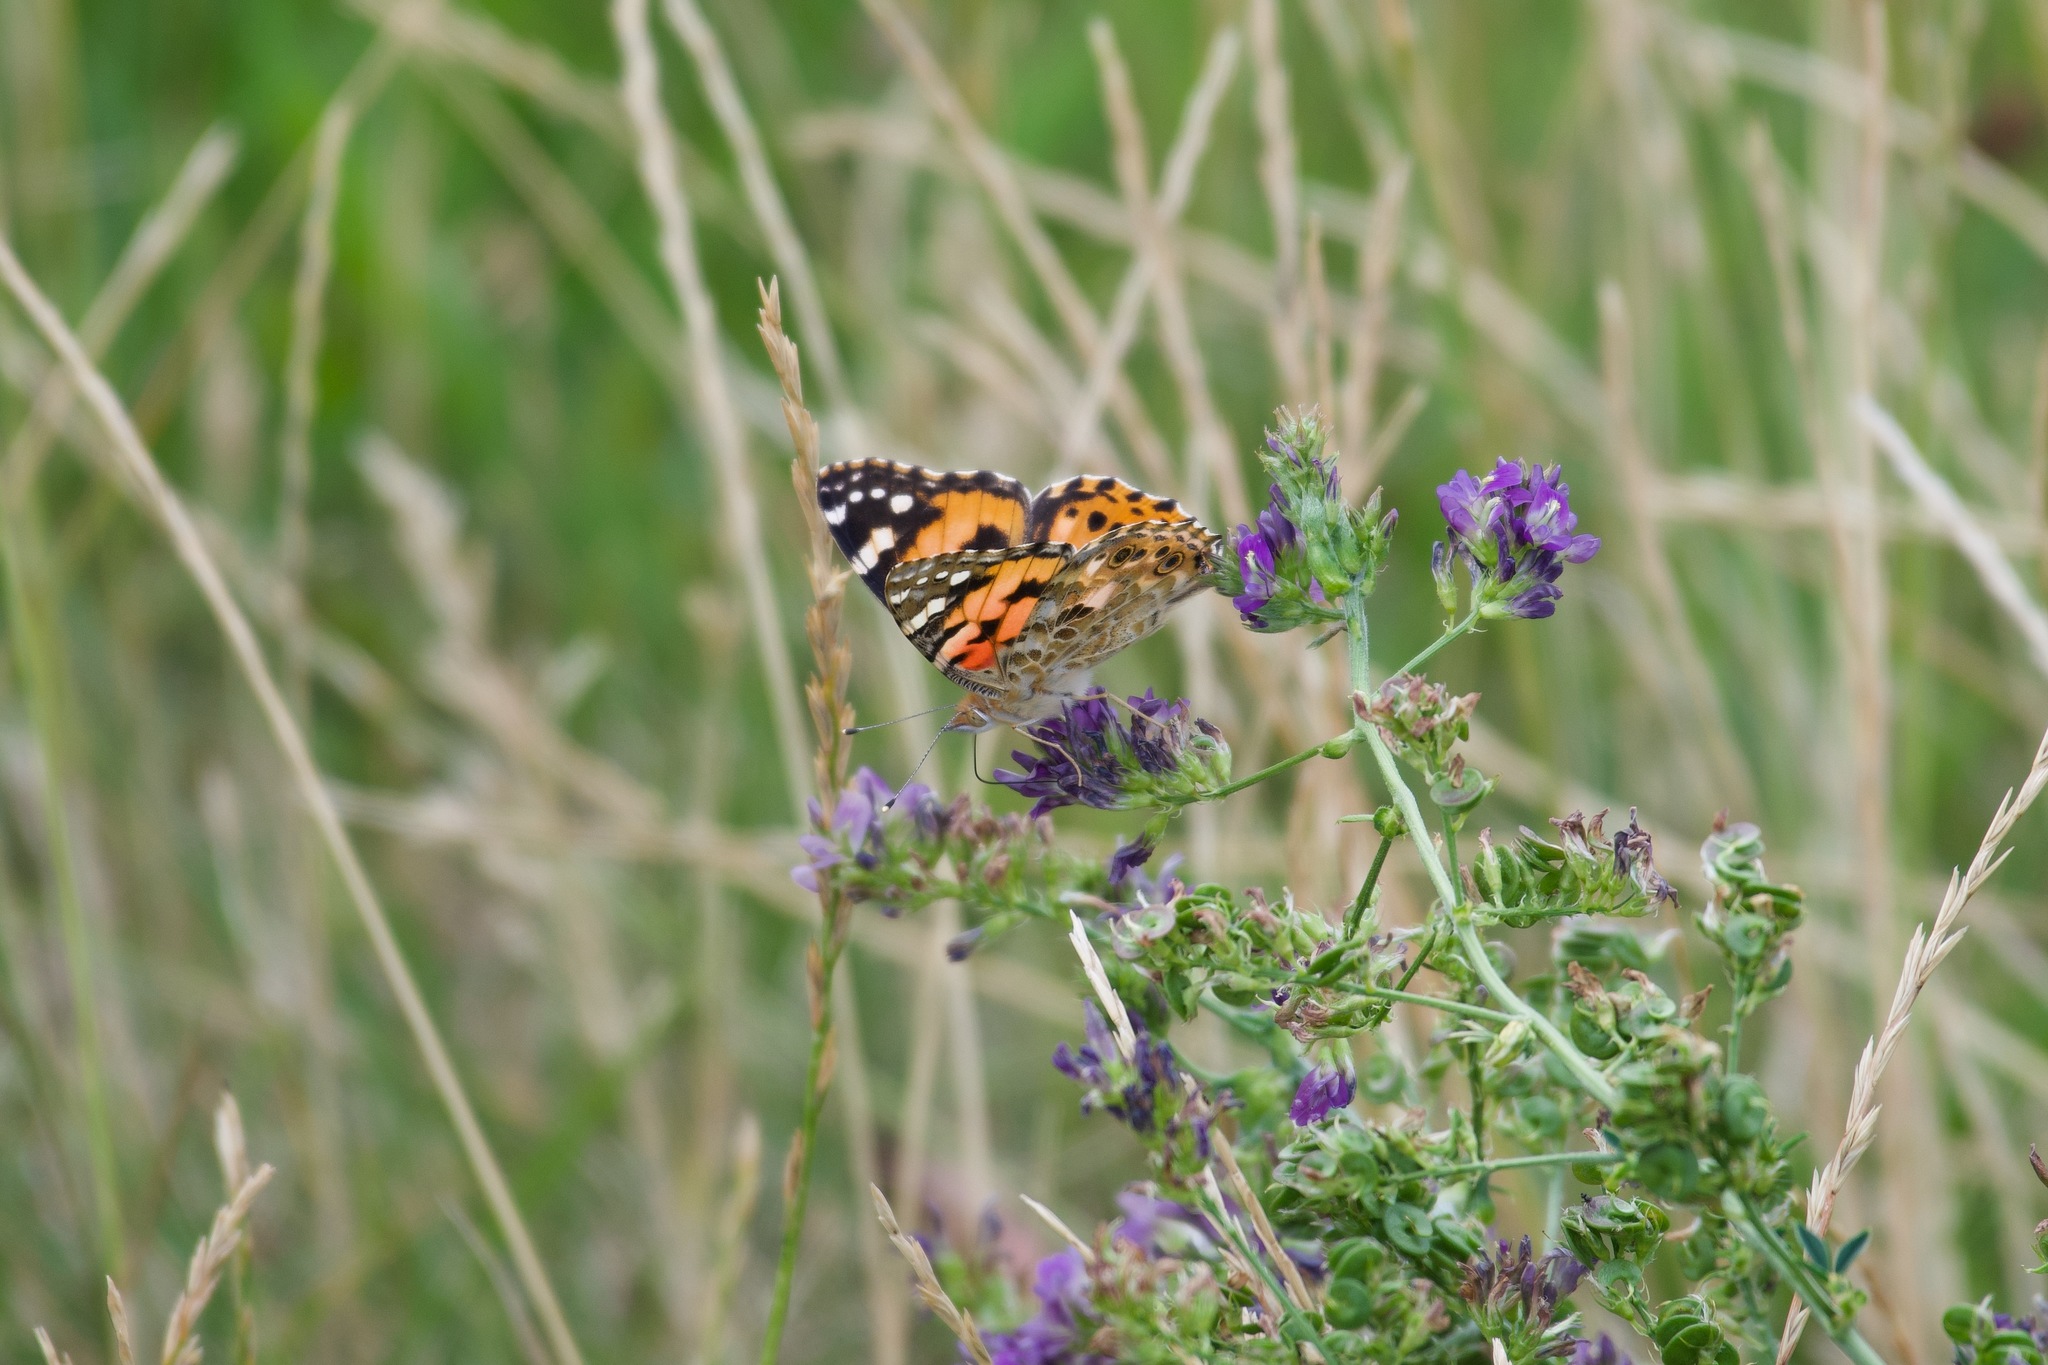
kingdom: Animalia
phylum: Arthropoda
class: Insecta
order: Lepidoptera
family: Nymphalidae
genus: Vanessa
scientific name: Vanessa cardui
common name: Painted lady
